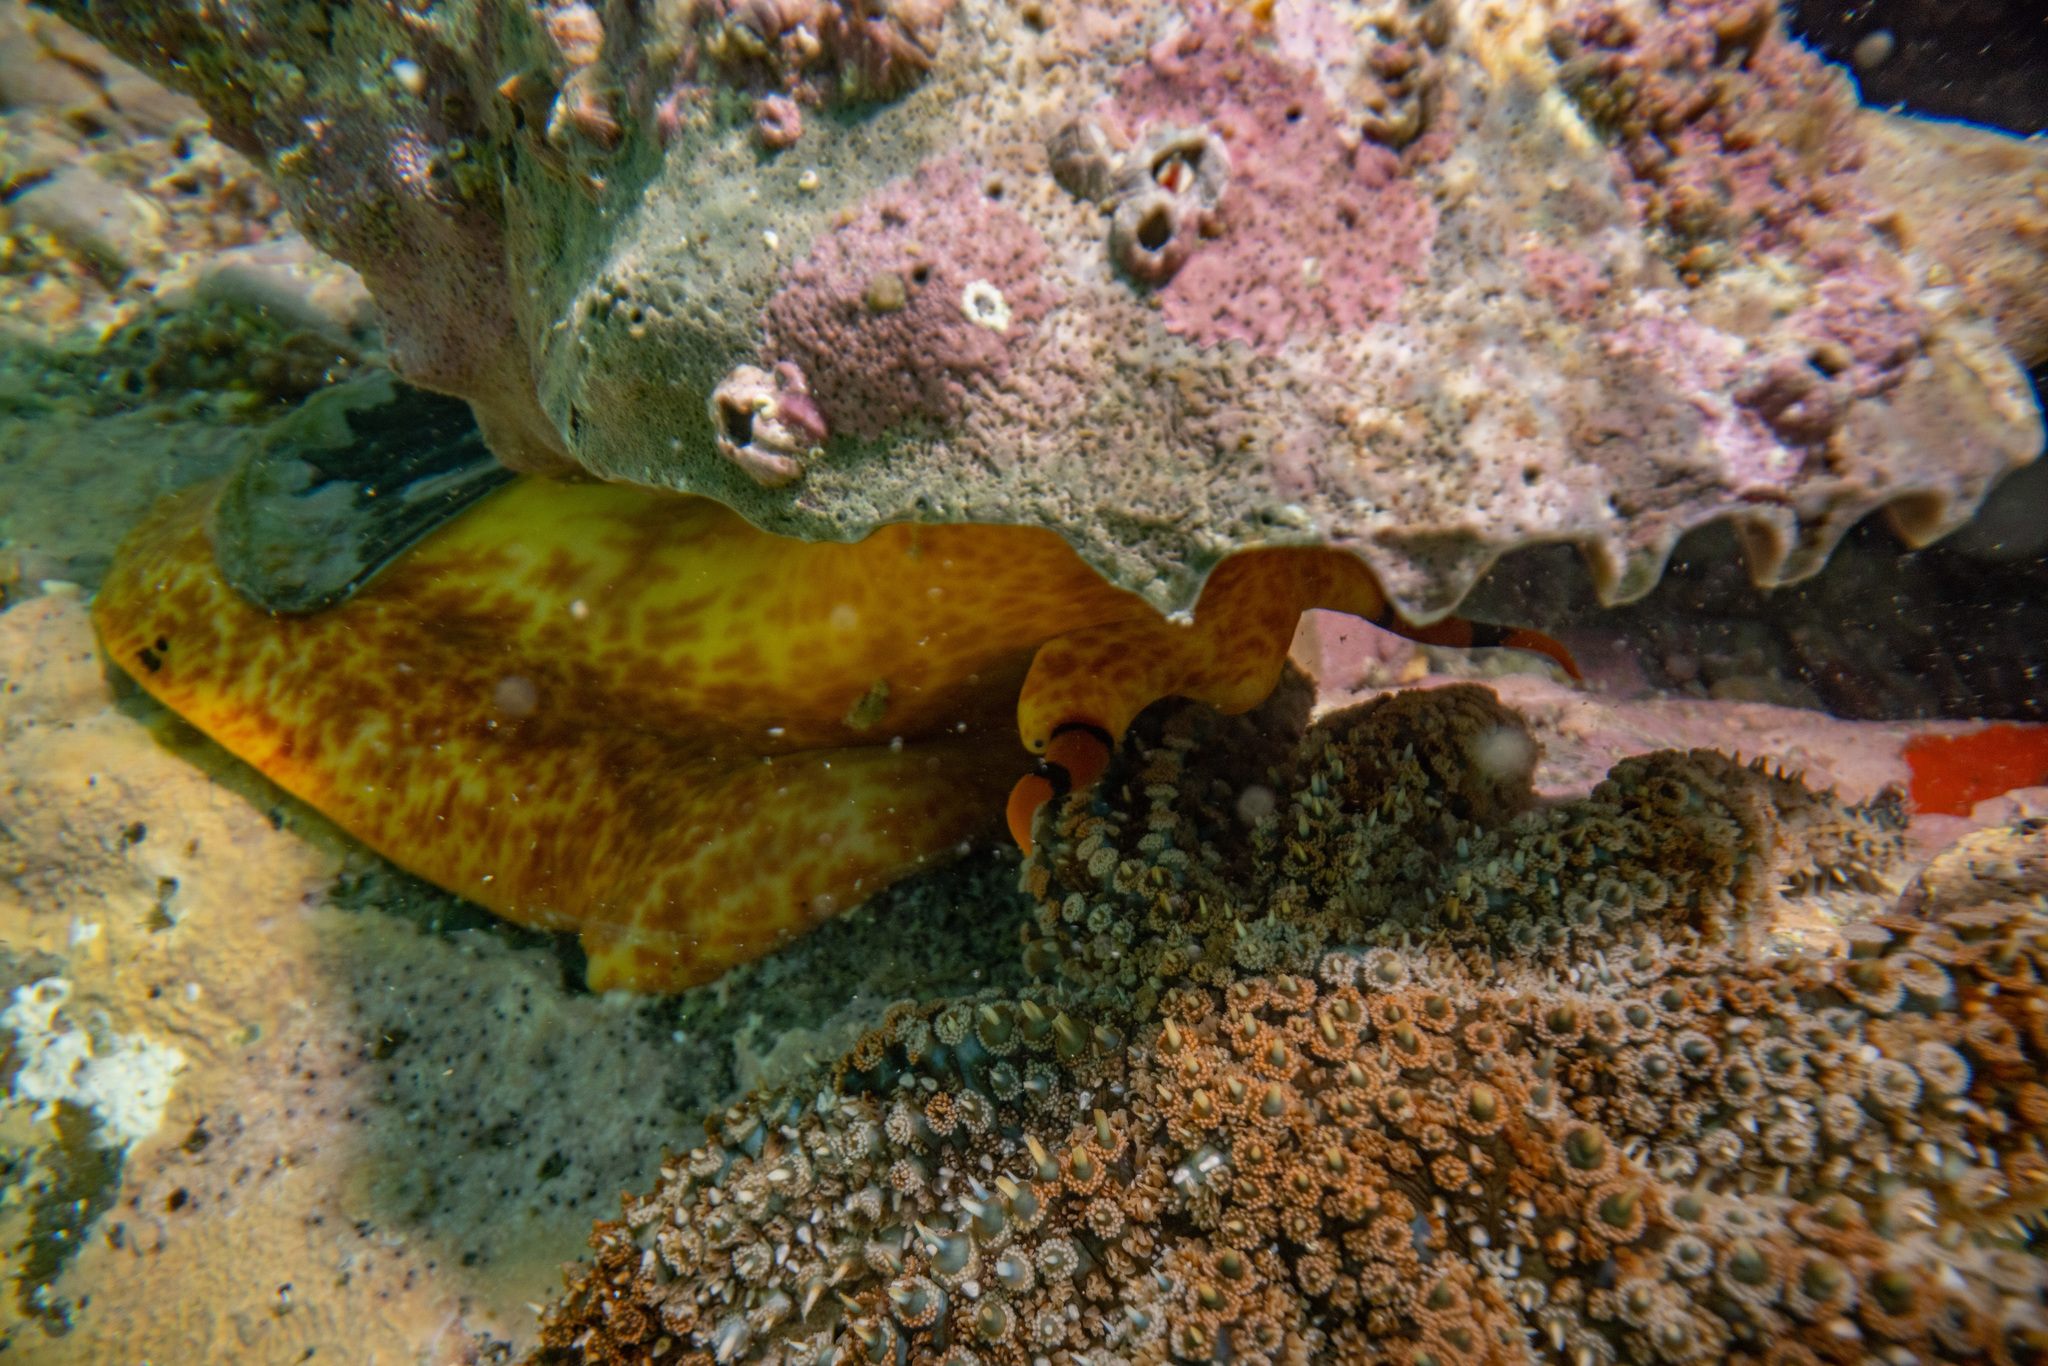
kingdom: Animalia
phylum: Mollusca
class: Gastropoda
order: Littorinimorpha
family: Charoniidae
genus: Charonia
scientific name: Charonia lampas
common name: Knobbed triton
